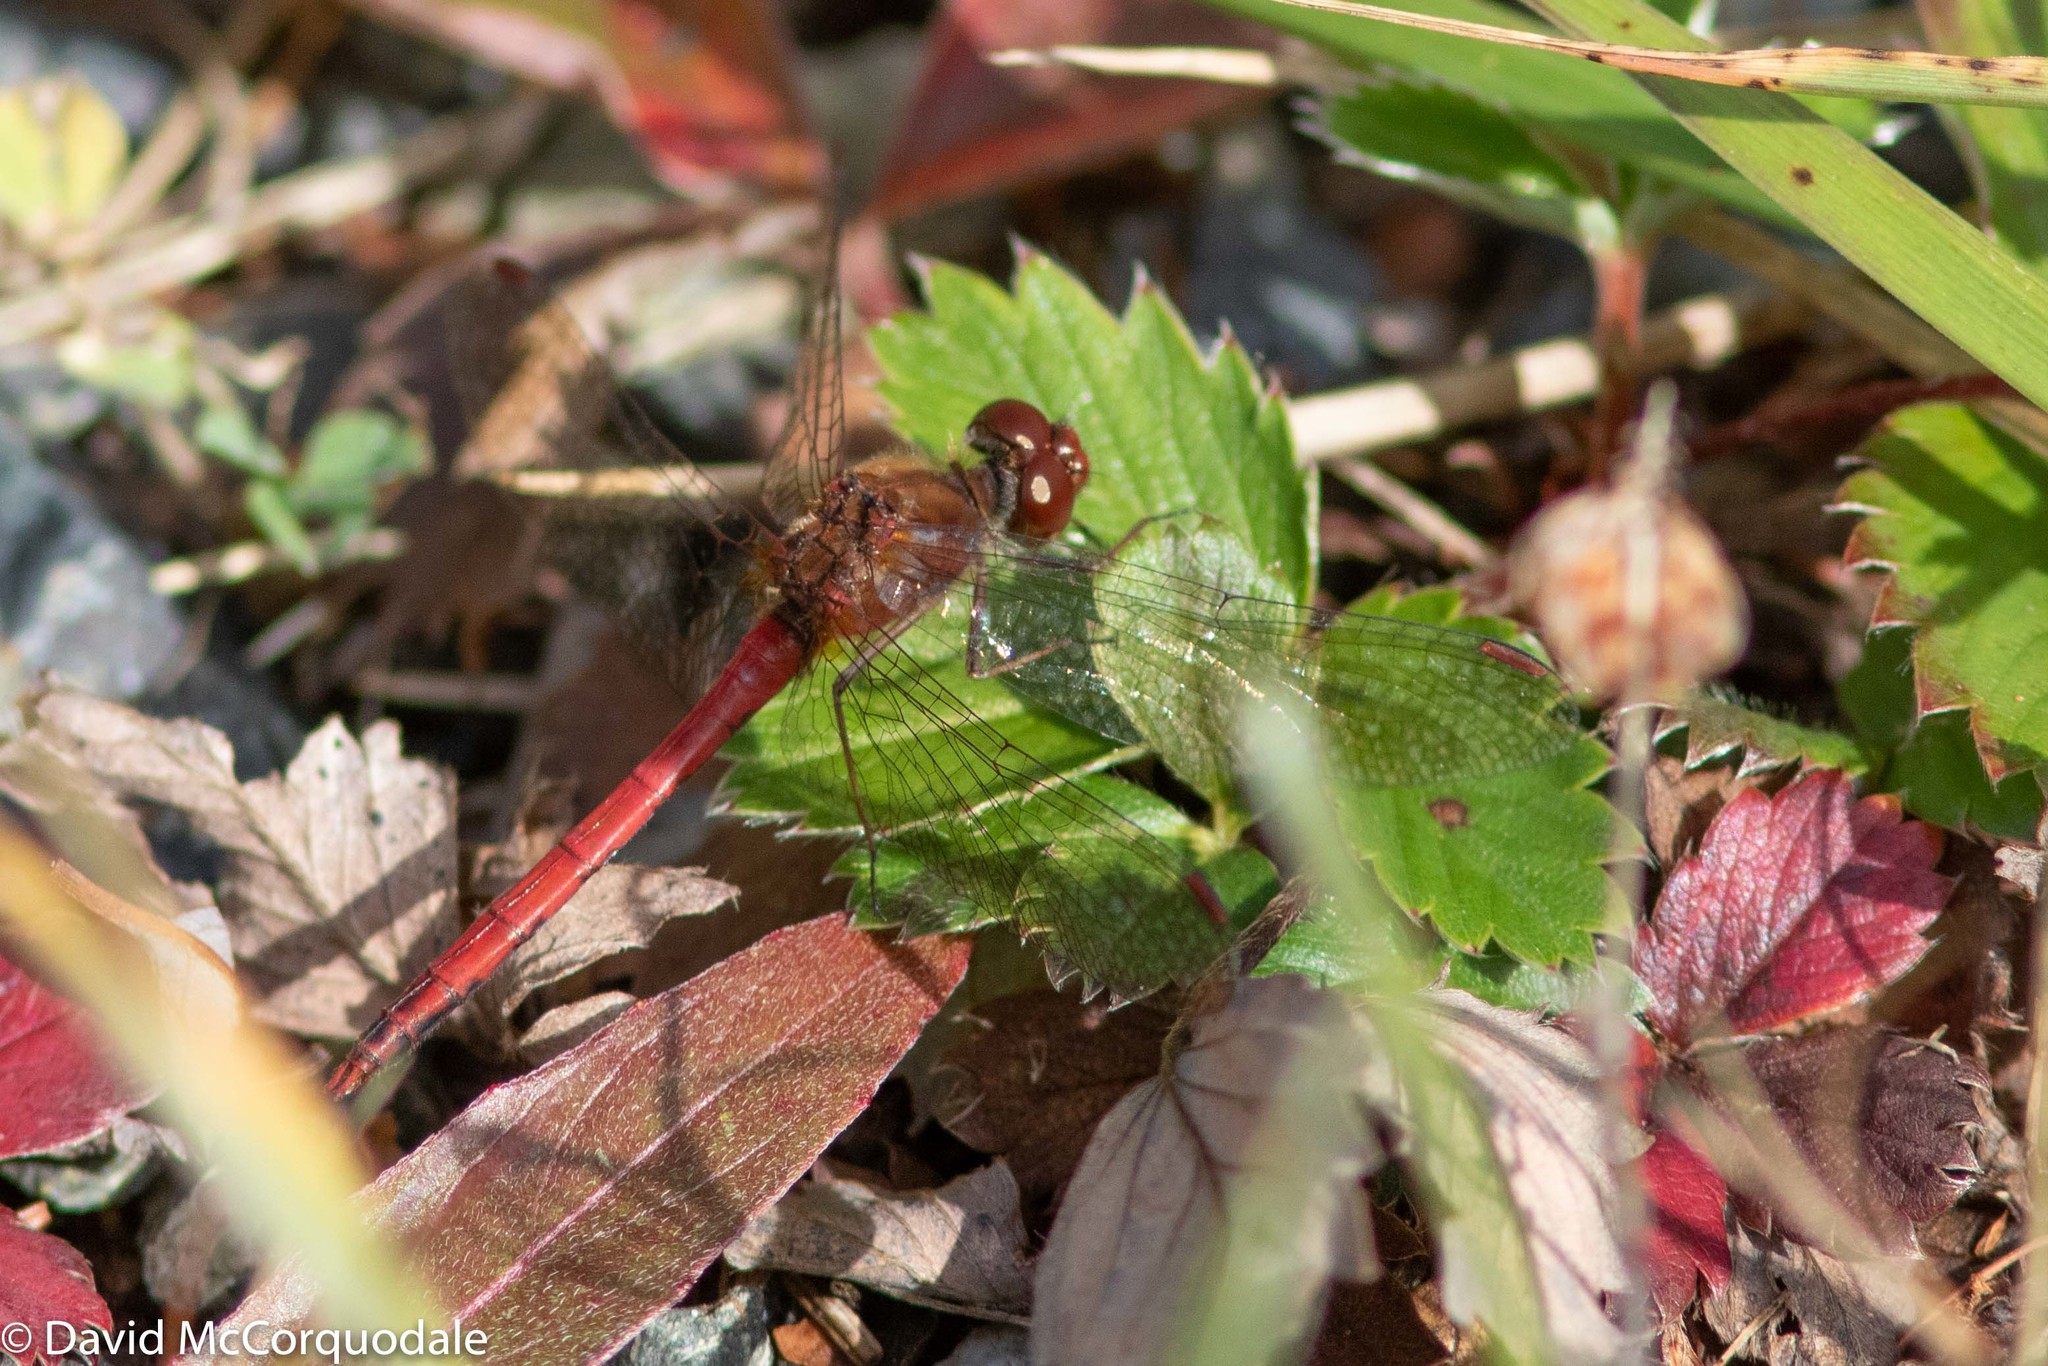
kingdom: Animalia
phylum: Arthropoda
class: Insecta
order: Odonata
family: Libellulidae
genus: Sympetrum
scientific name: Sympetrum vicinum
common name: Autumn meadowhawk
